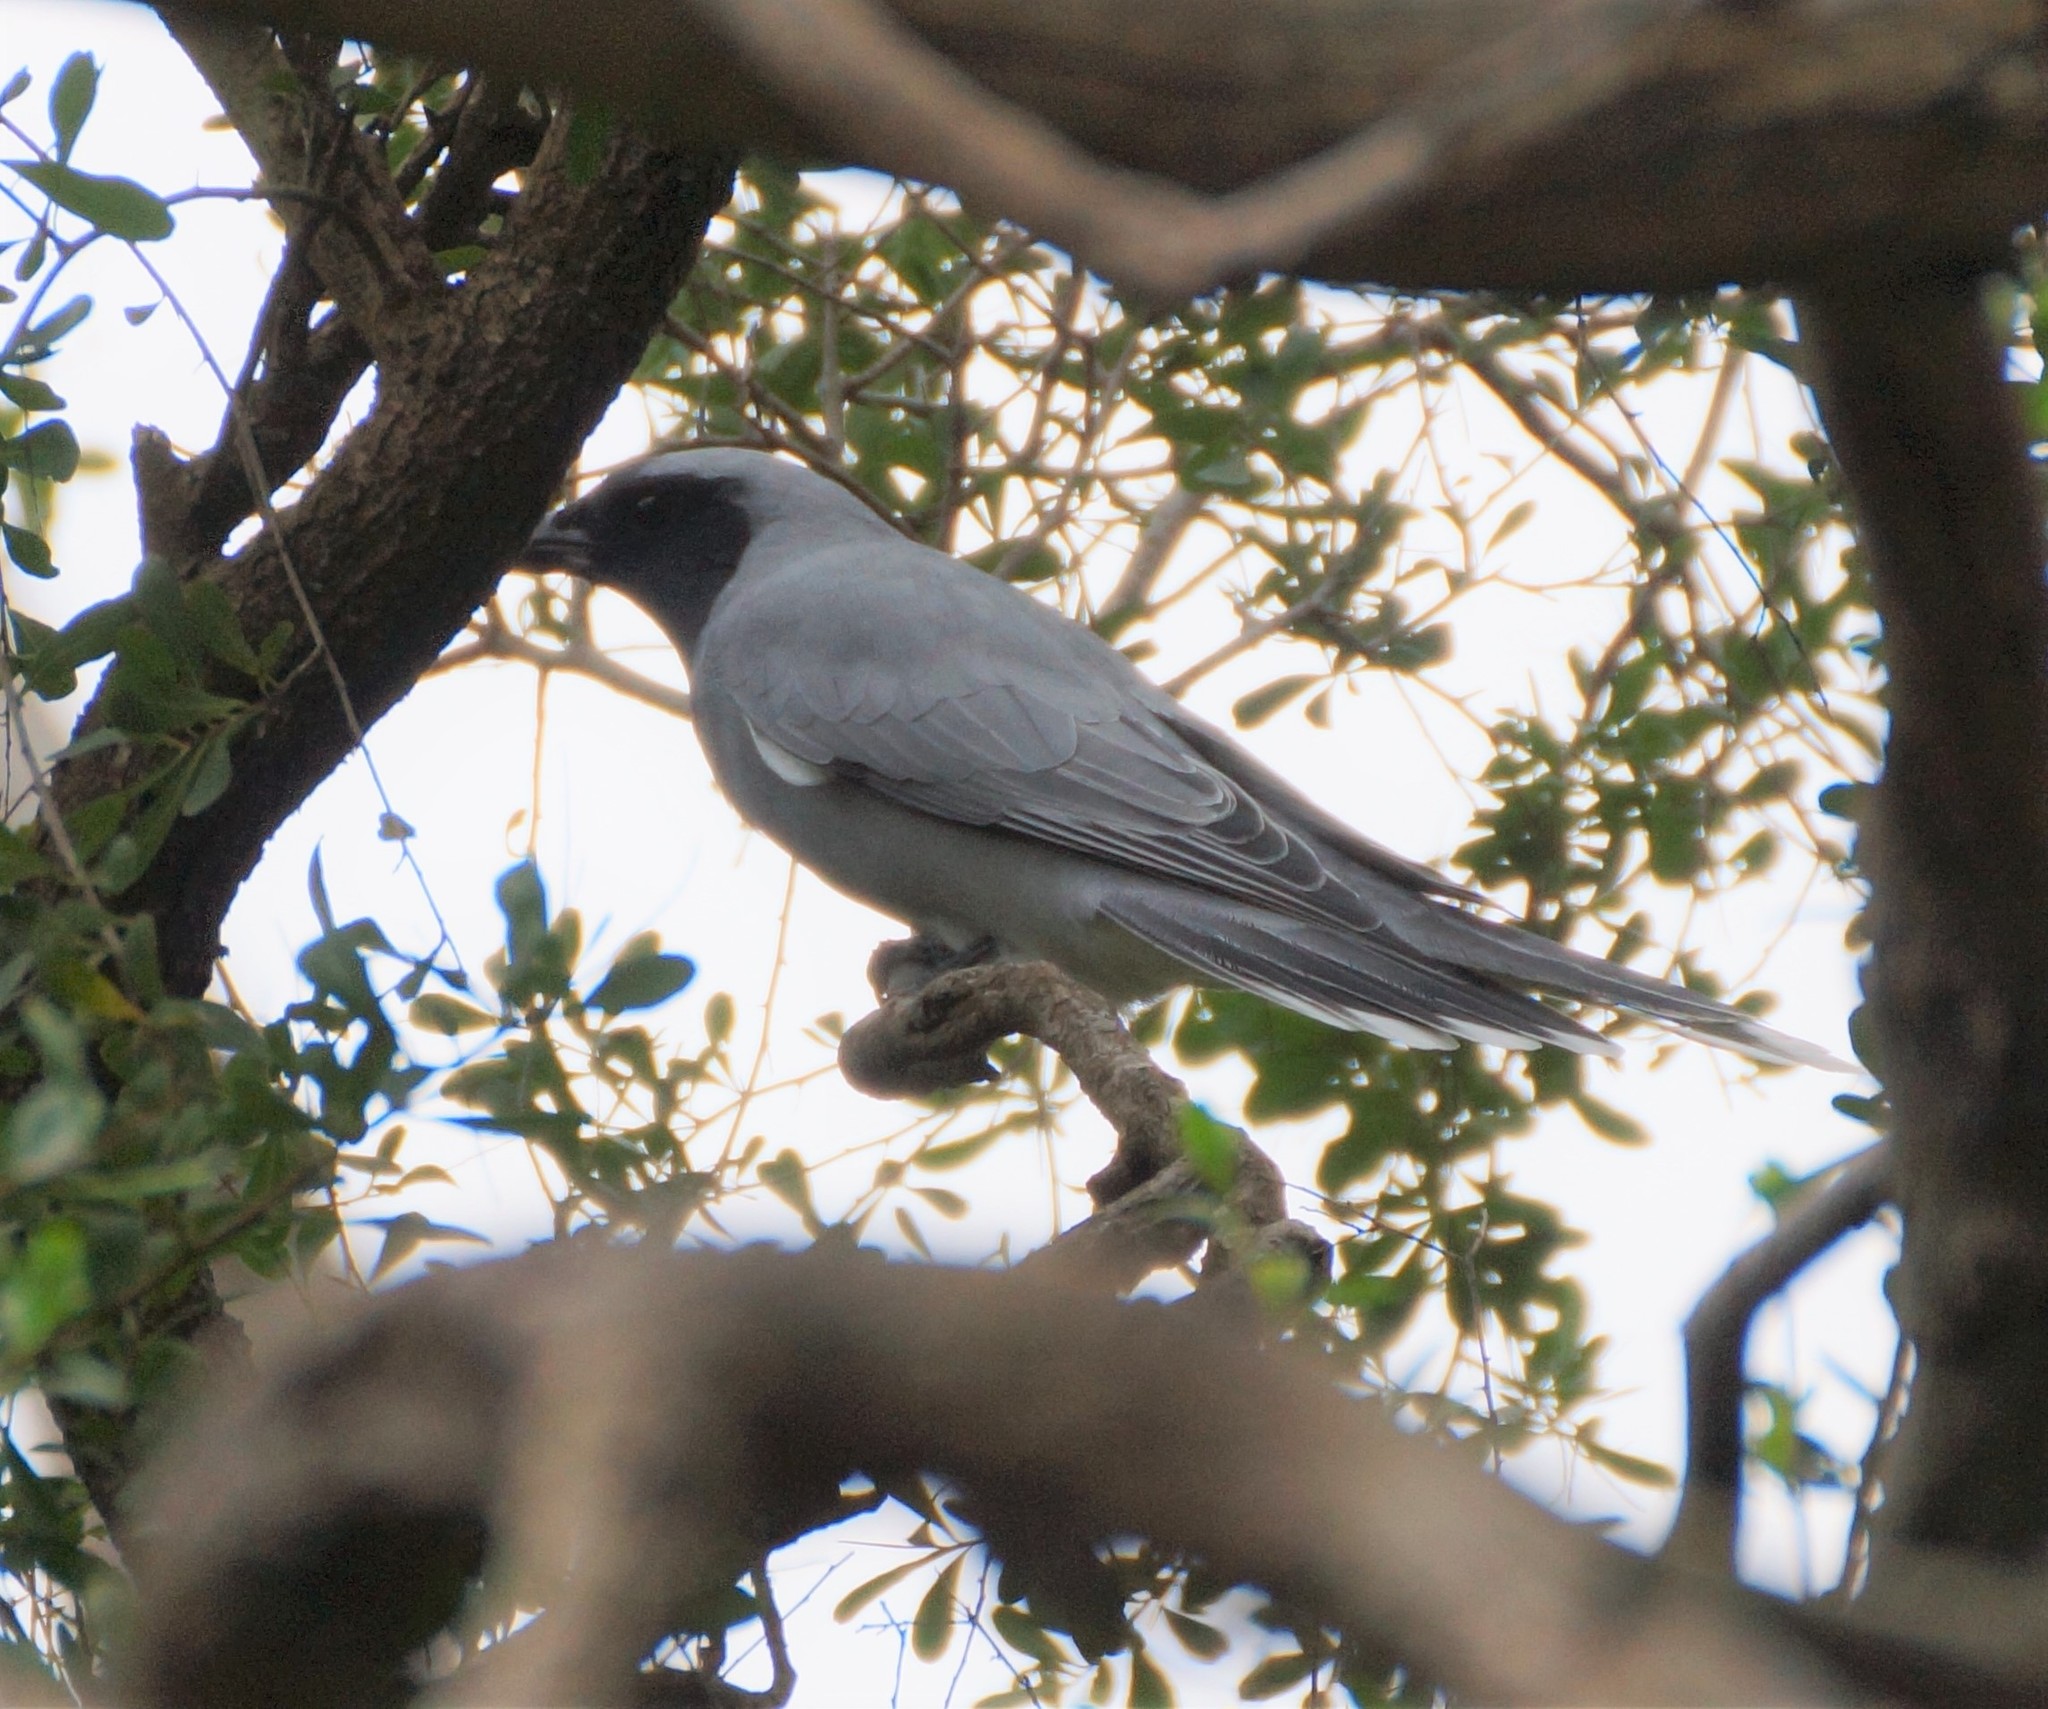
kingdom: Animalia
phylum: Chordata
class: Aves
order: Passeriformes
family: Campephagidae
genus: Coracina
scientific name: Coracina novaehollandiae
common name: Black-faced cuckooshrike
